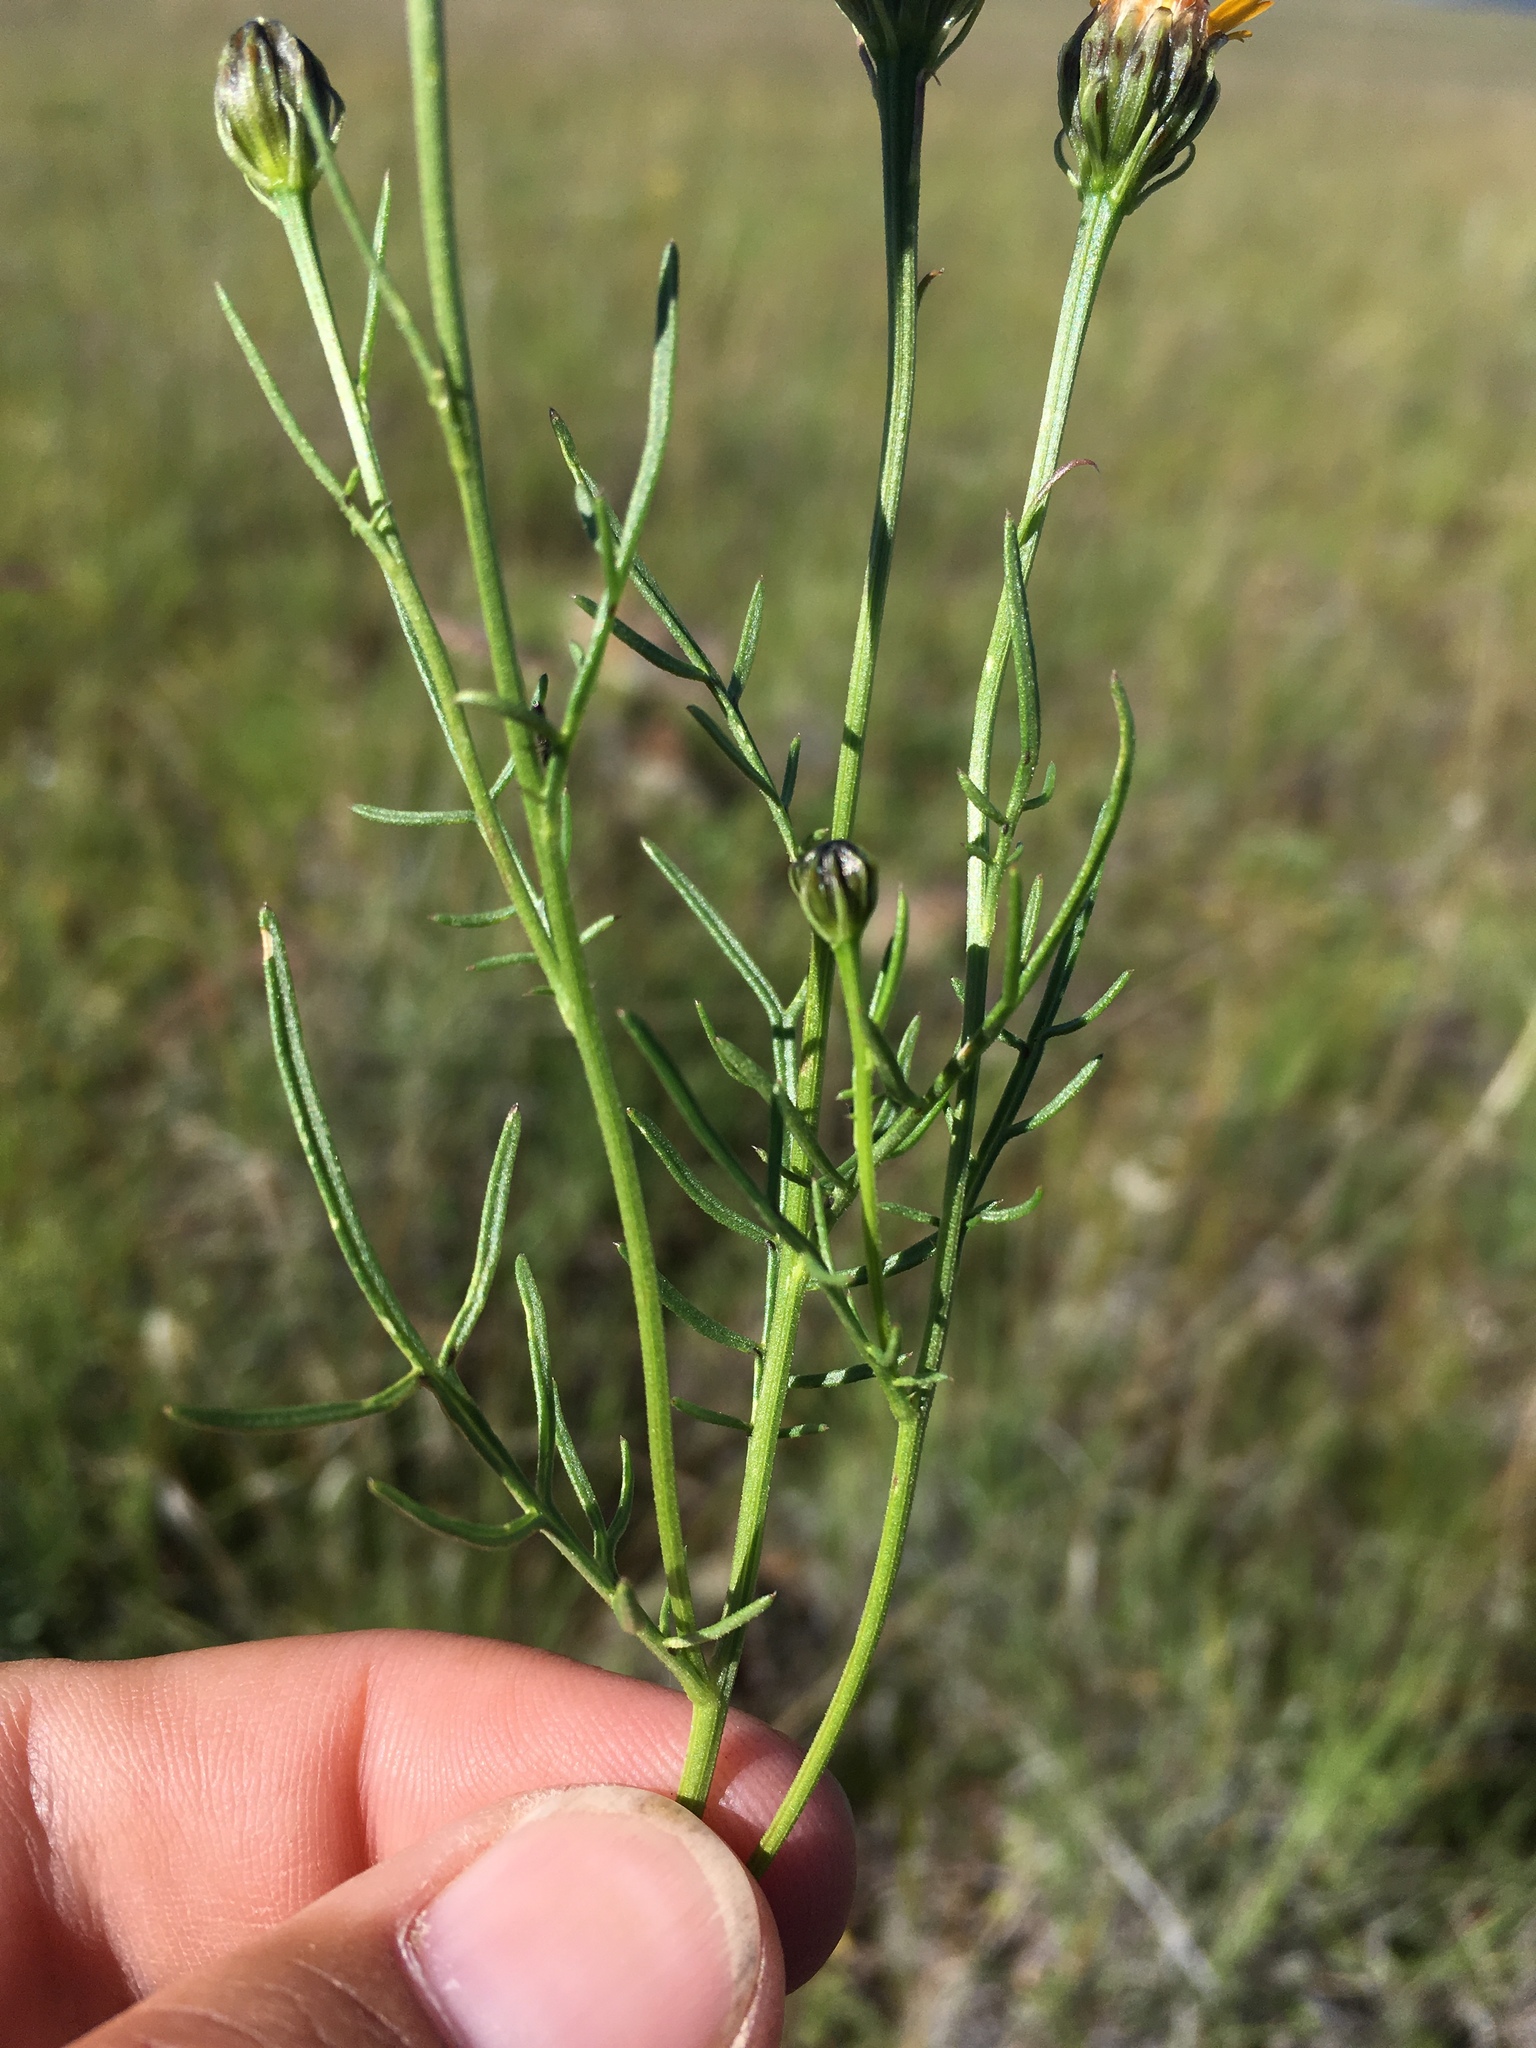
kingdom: Plantae
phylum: Tracheophyta
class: Magnoliopsida
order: Asterales
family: Asteraceae
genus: Adenophyllum
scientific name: Adenophyllum wrightii
